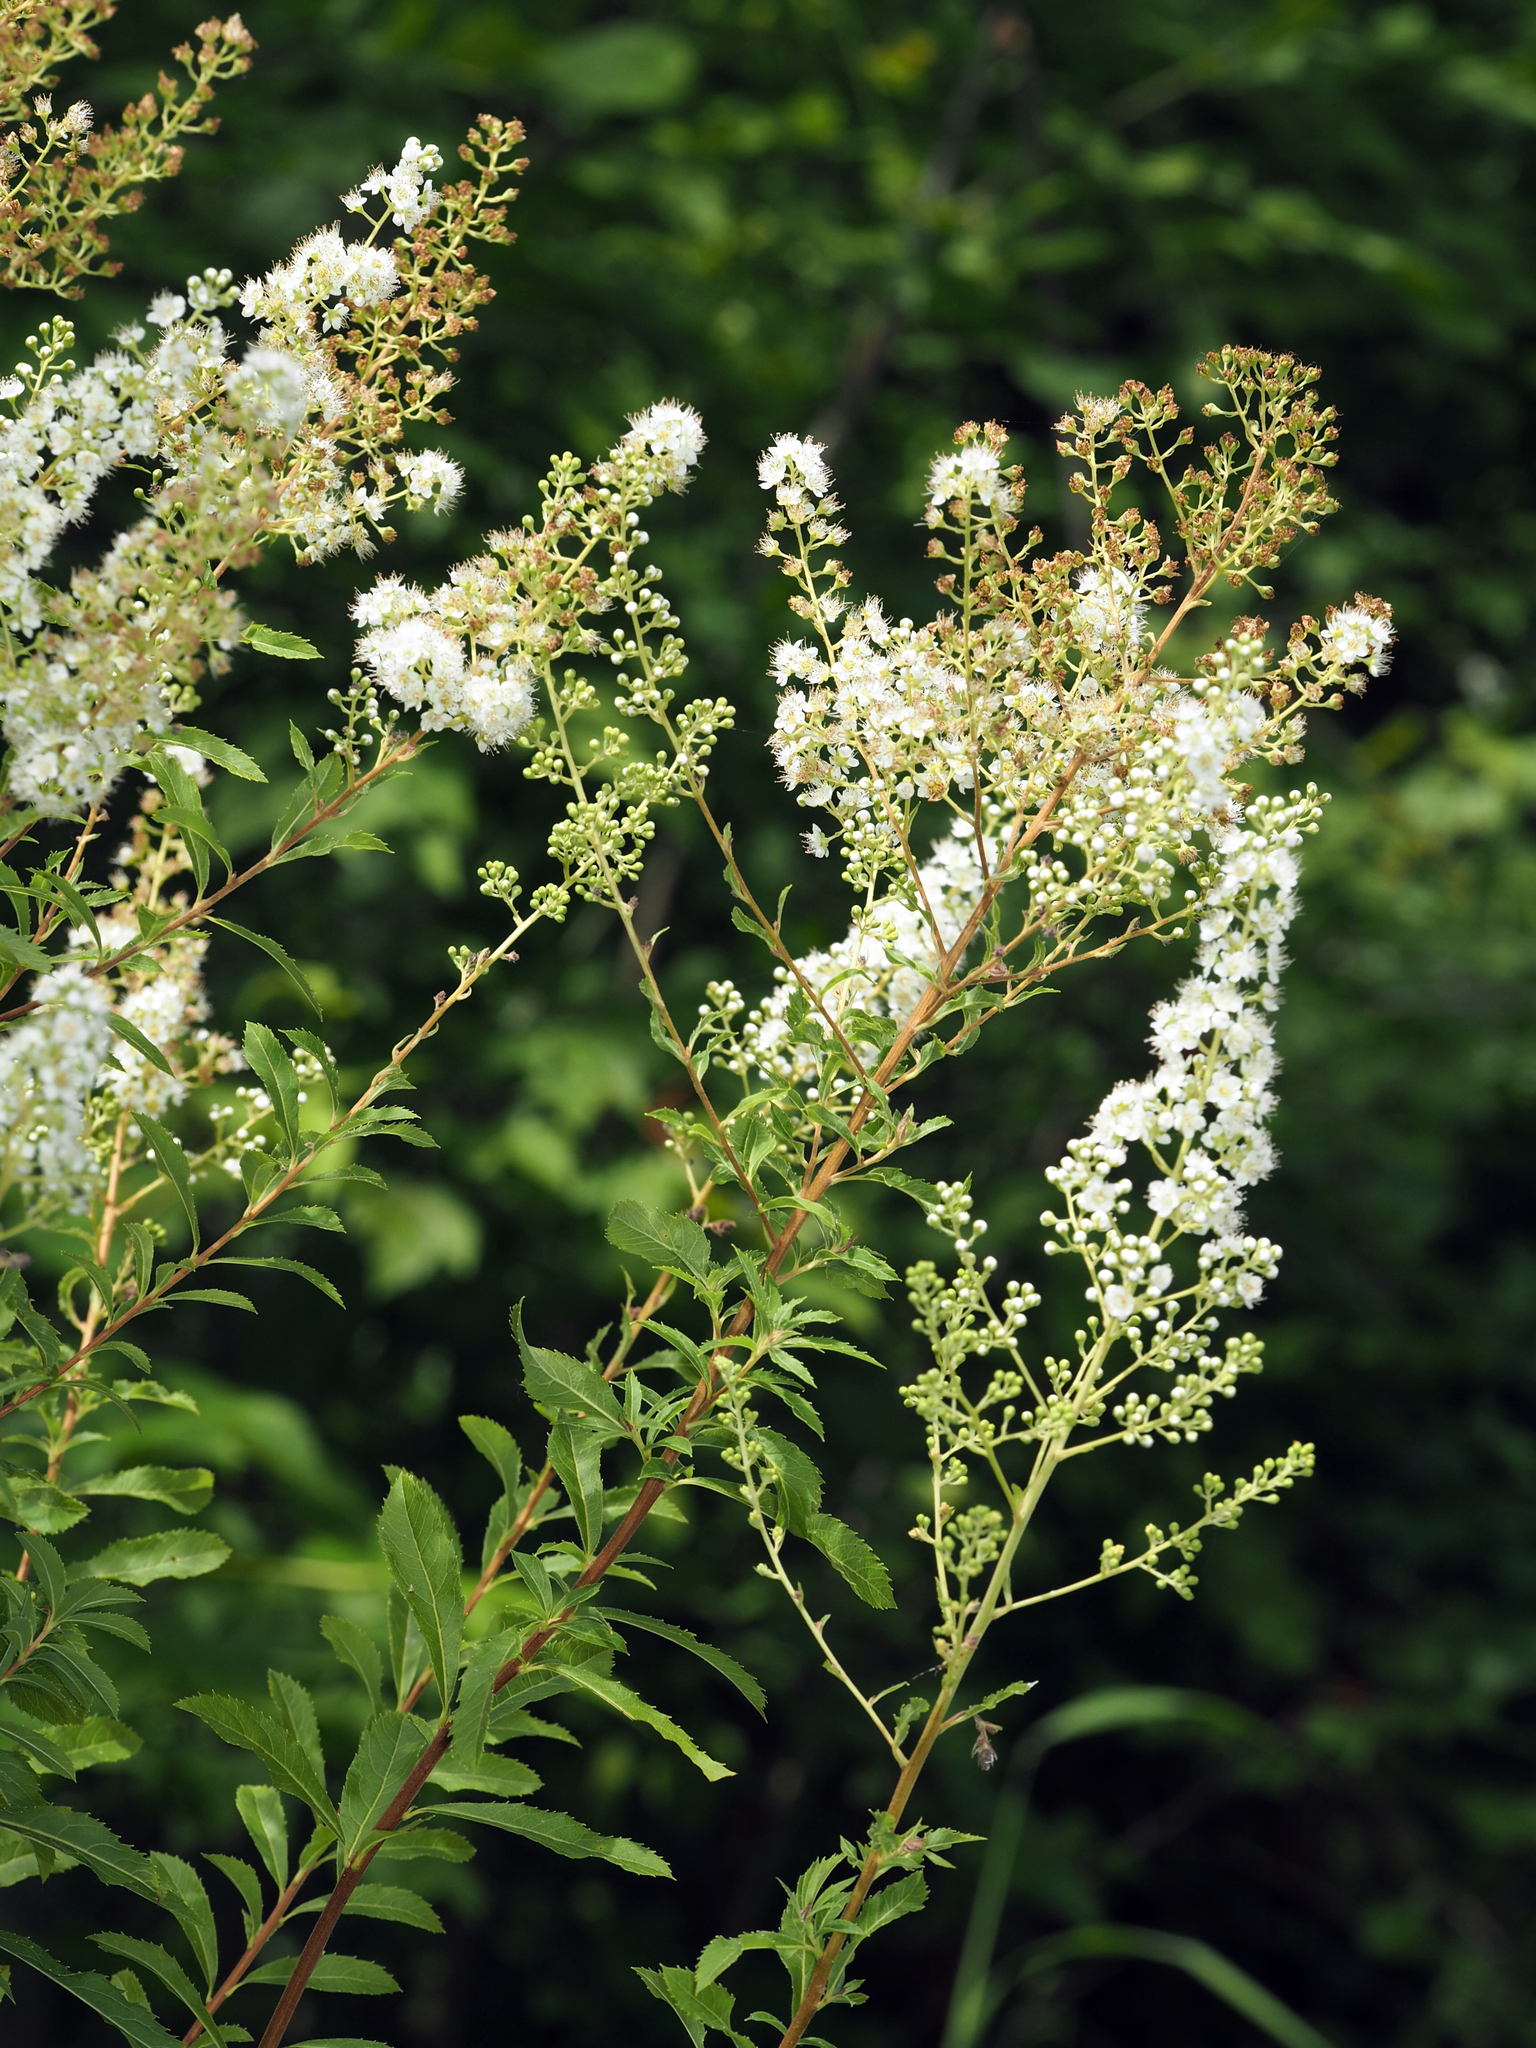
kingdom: Plantae
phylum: Tracheophyta
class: Magnoliopsida
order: Rosales
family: Rosaceae
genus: Spiraea
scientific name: Spiraea alba
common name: Pale bridewort
